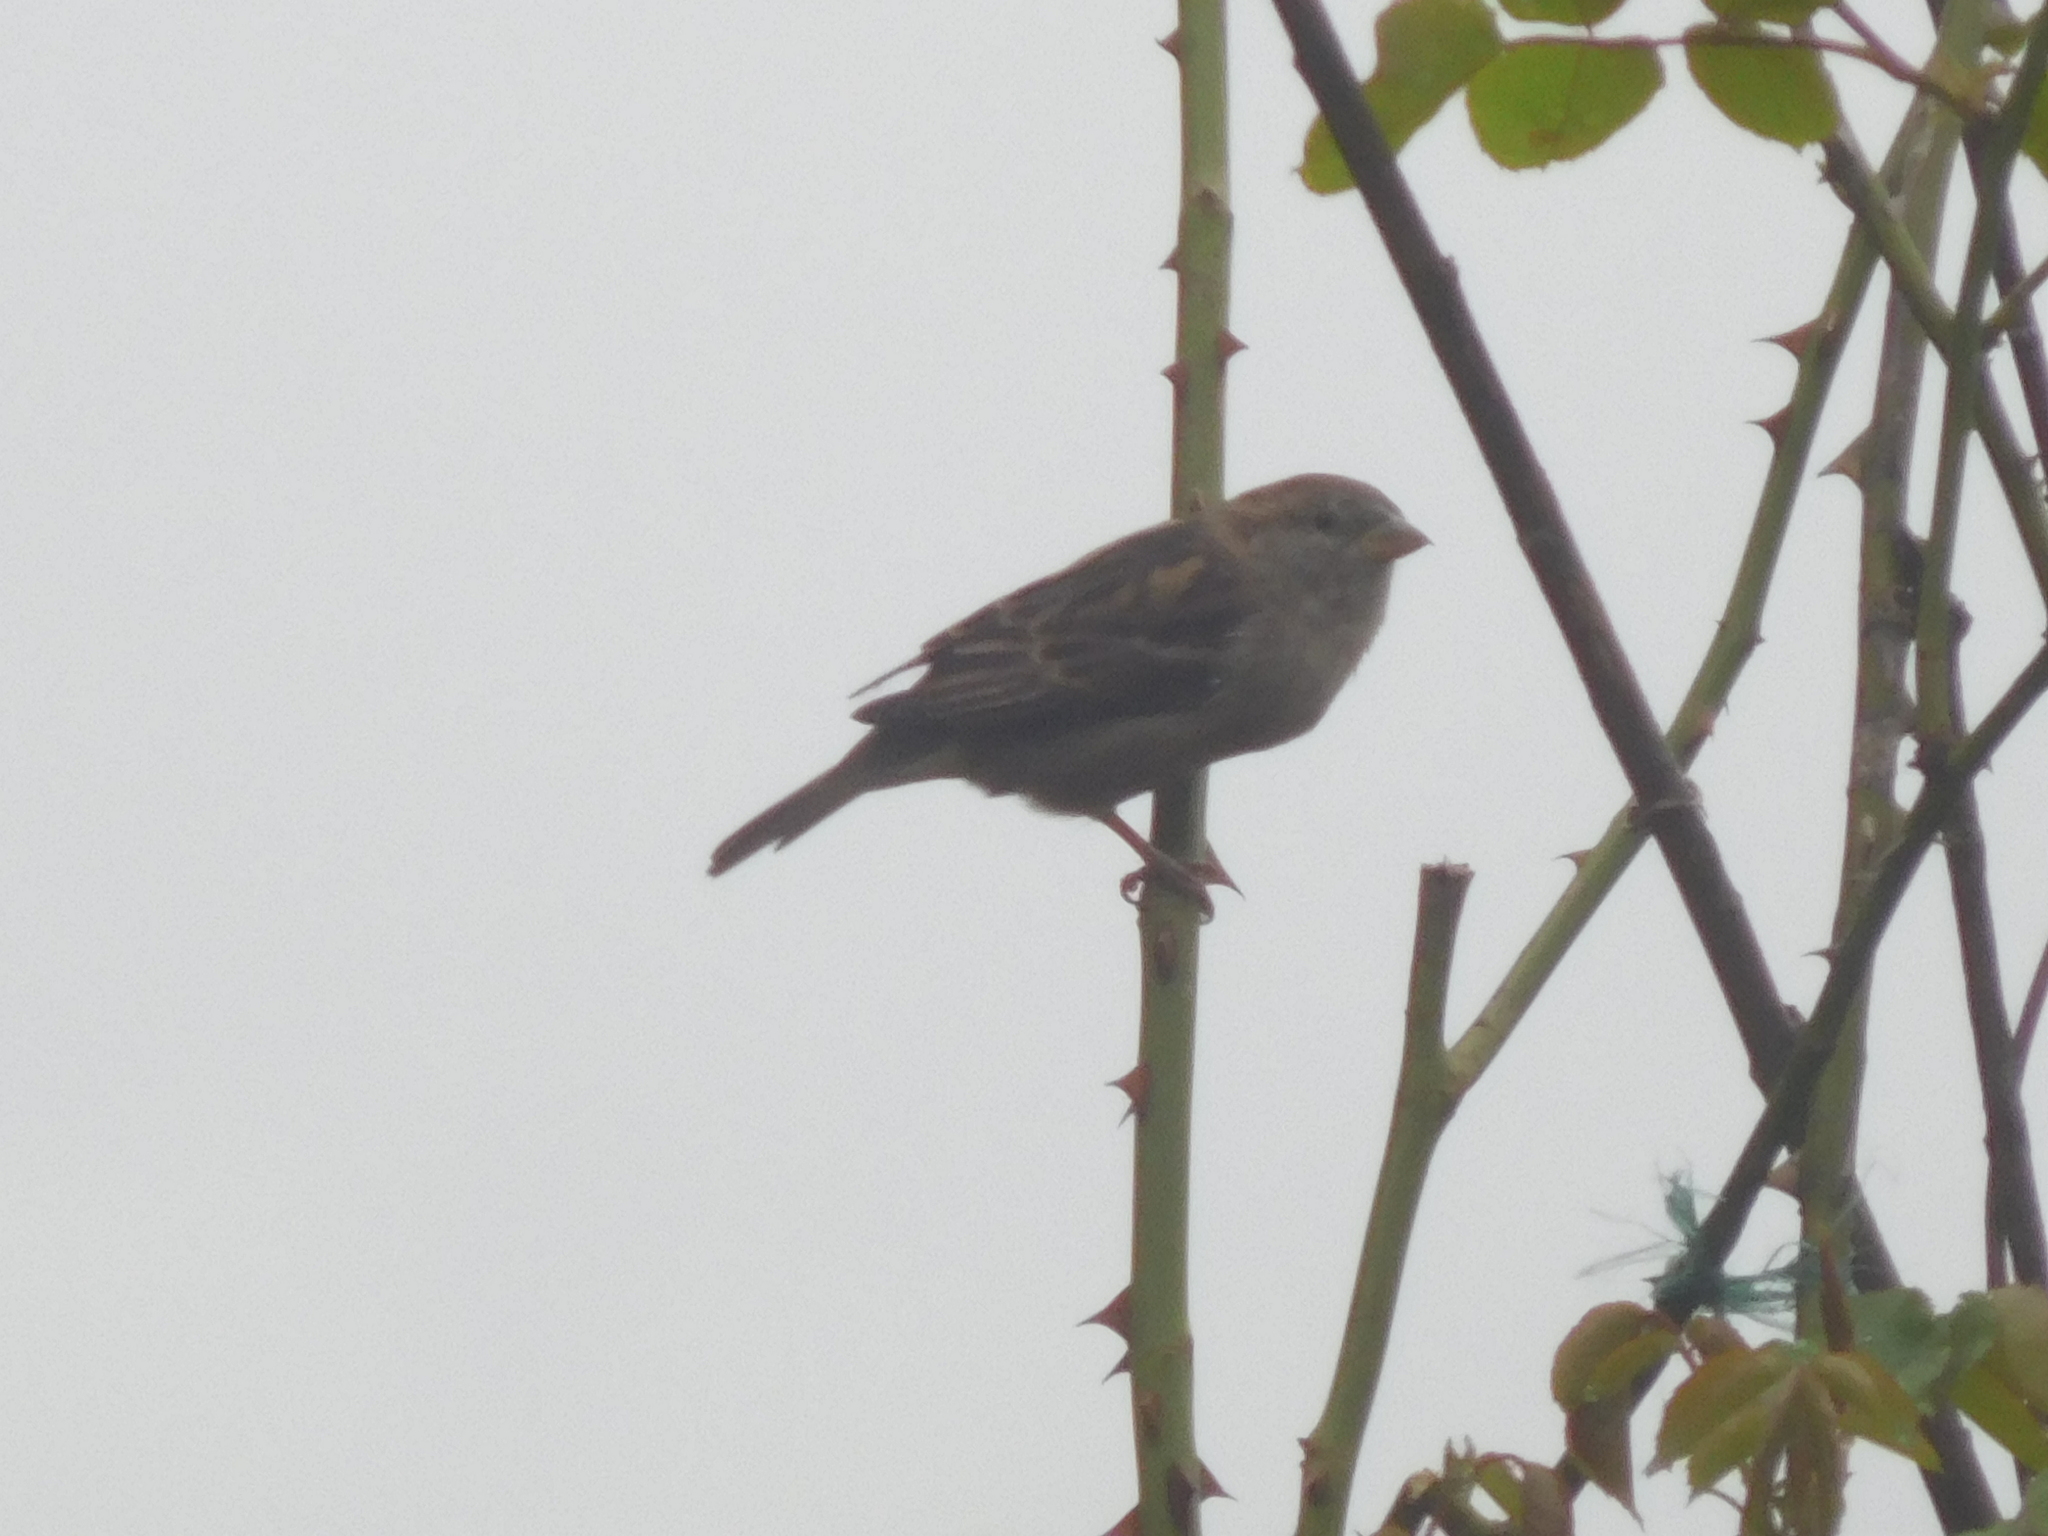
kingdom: Animalia
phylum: Chordata
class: Aves
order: Passeriformes
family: Passeridae
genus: Passer
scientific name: Passer domesticus
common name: House sparrow
